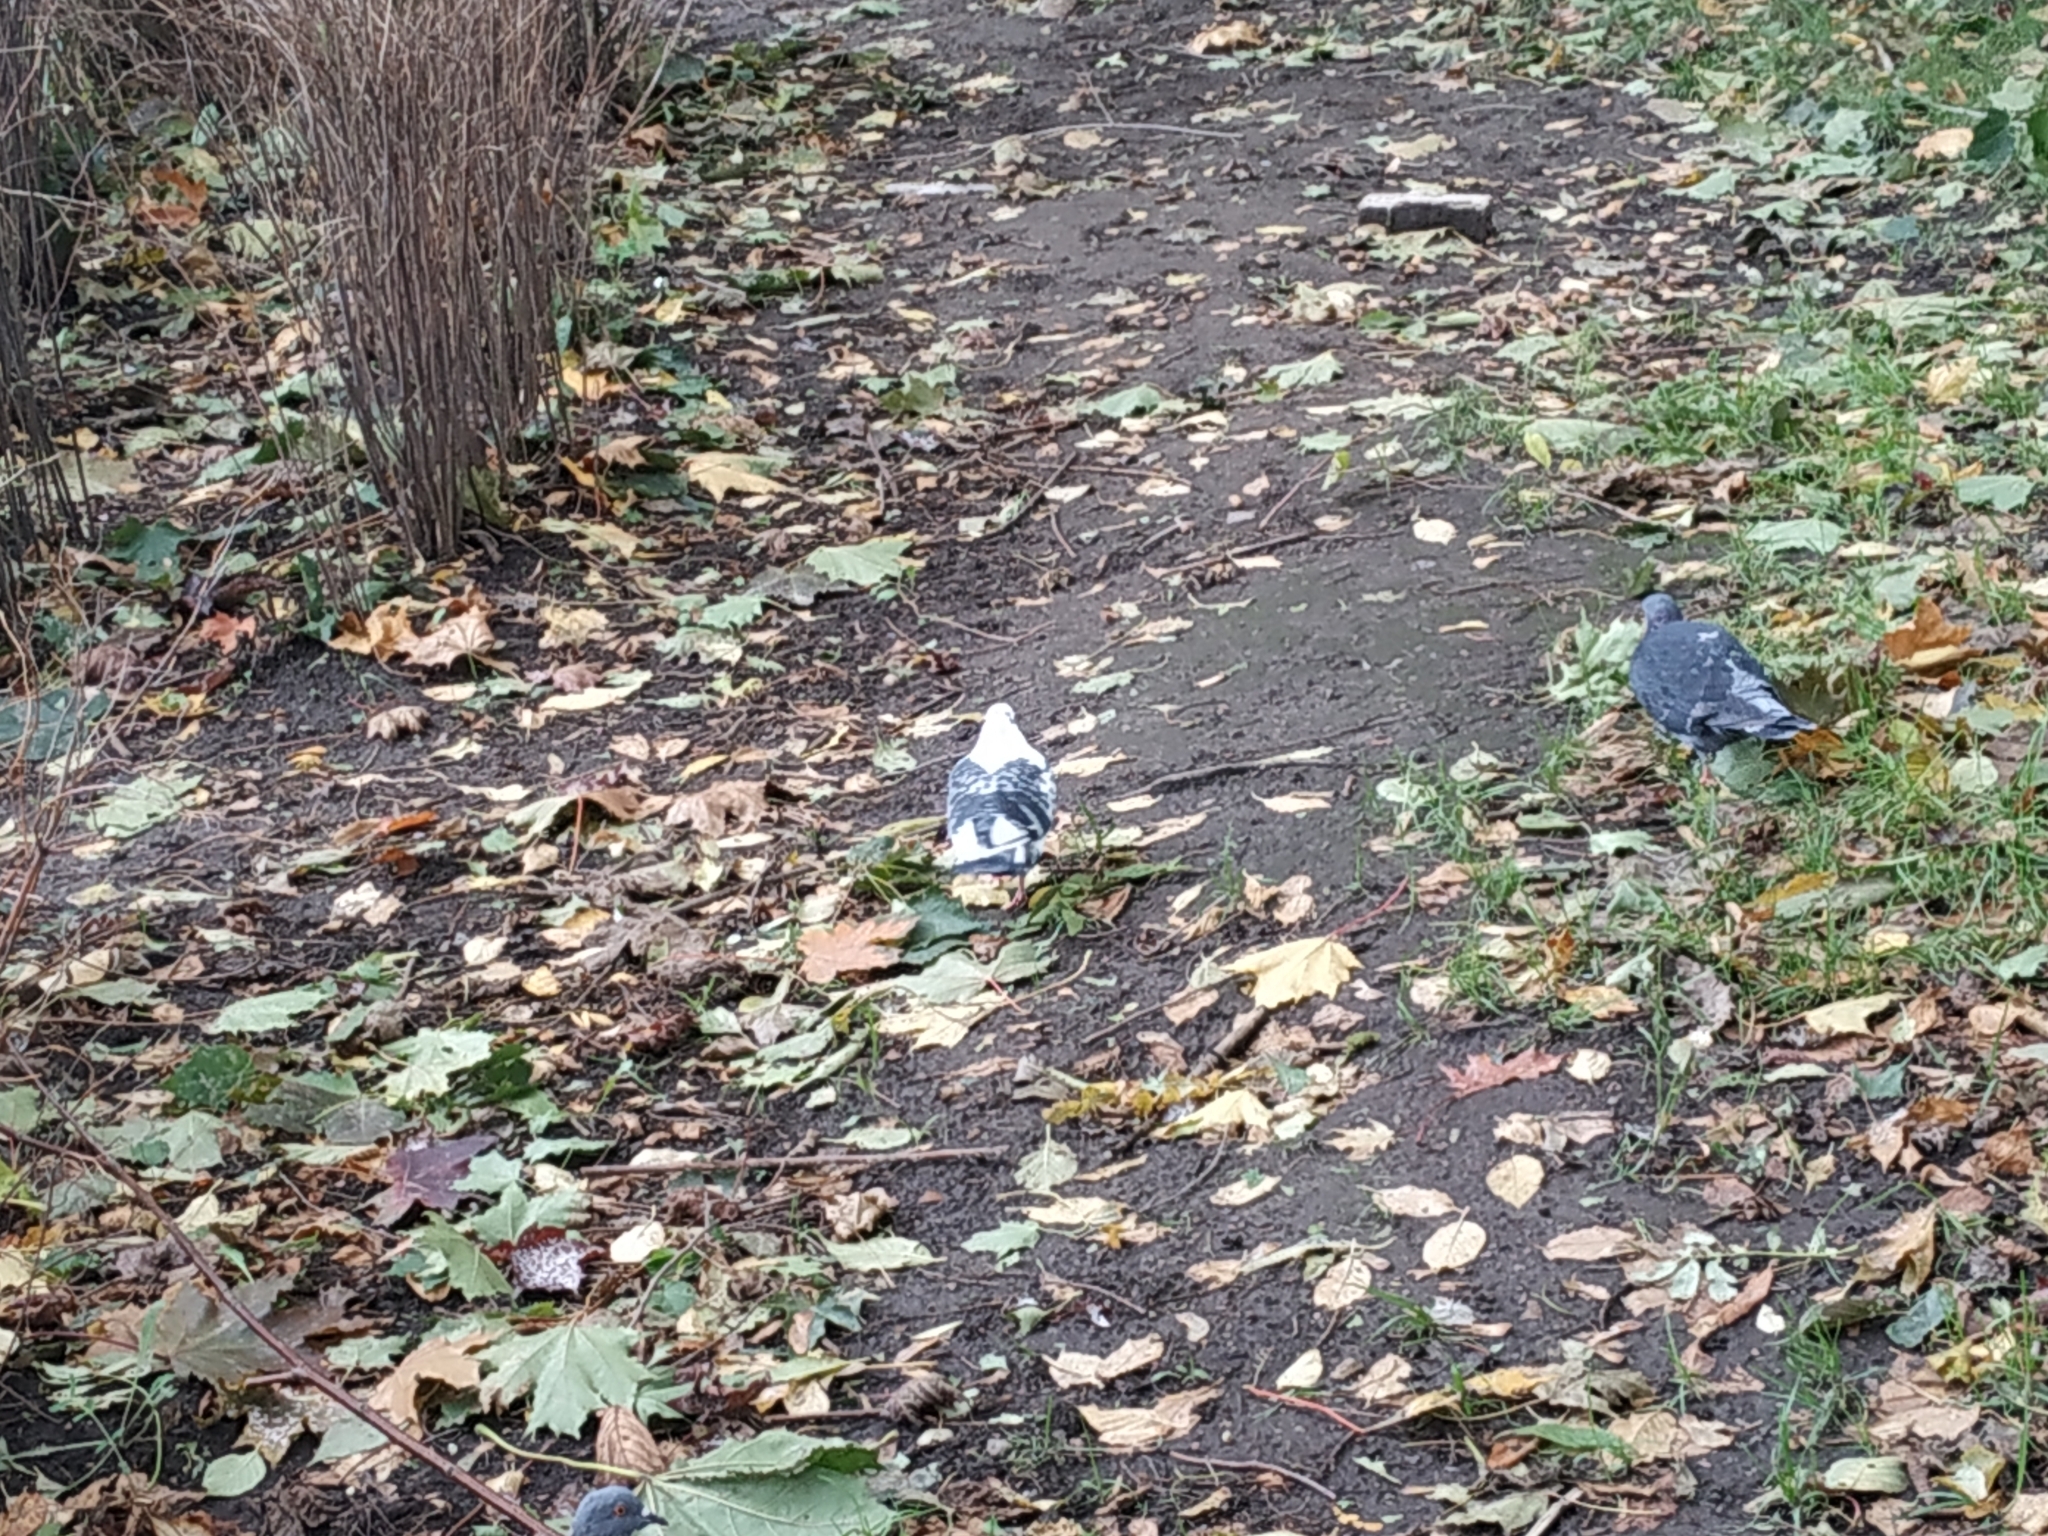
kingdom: Animalia
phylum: Chordata
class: Aves
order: Columbiformes
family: Columbidae
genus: Columba
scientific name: Columba livia
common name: Rock pigeon
